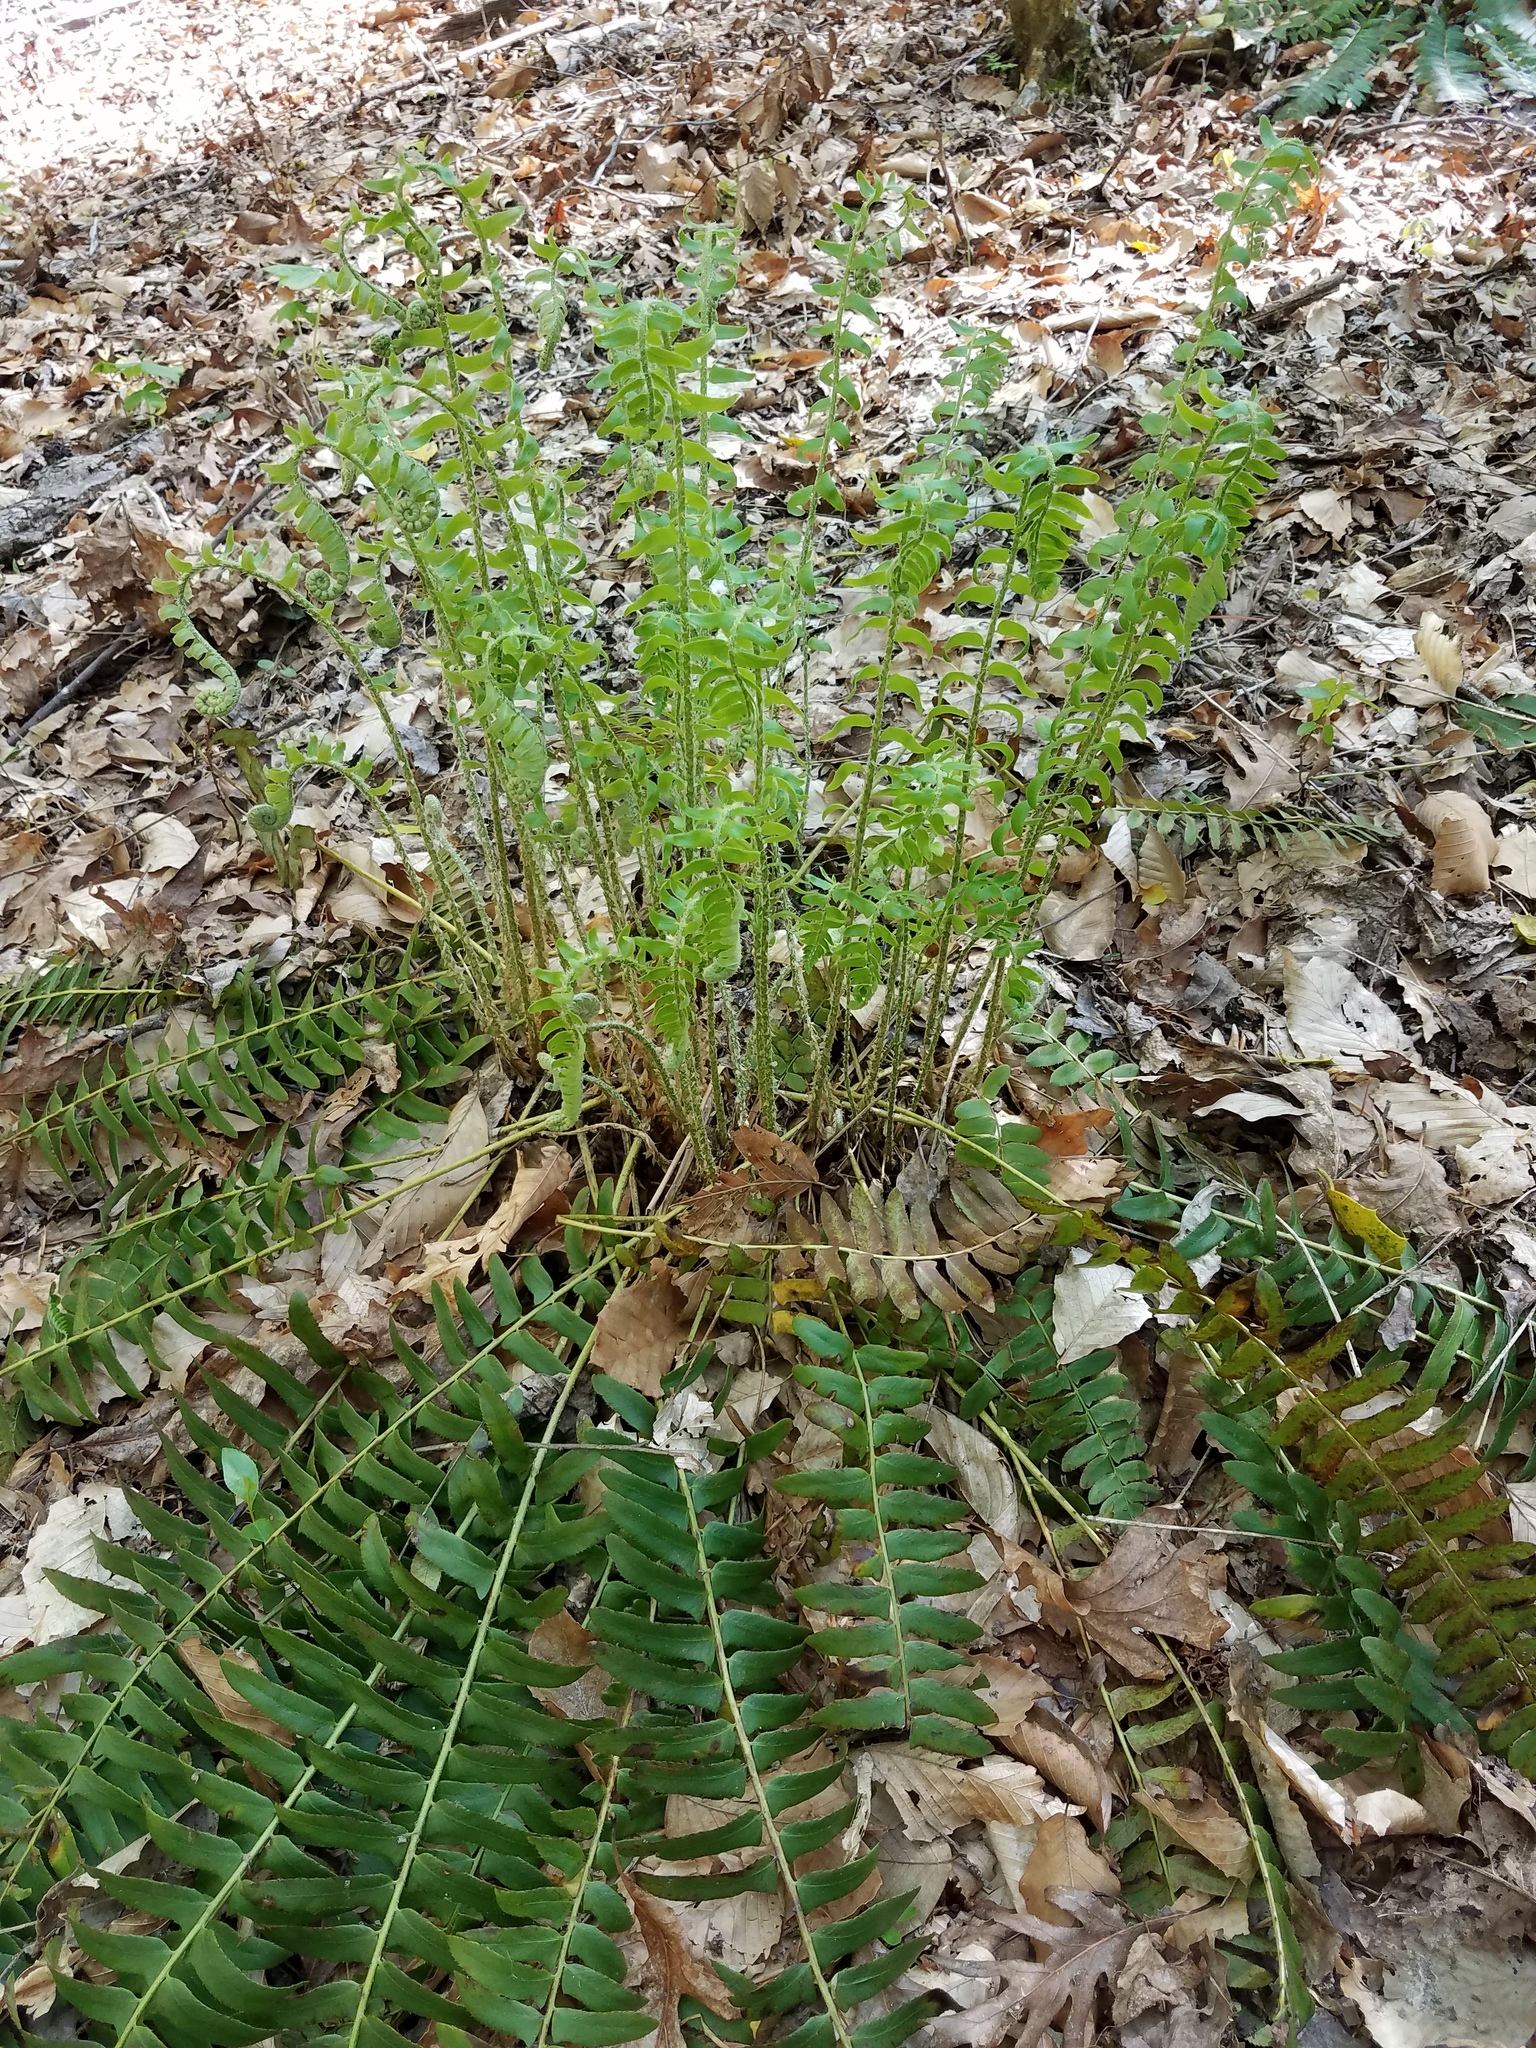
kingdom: Plantae
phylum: Tracheophyta
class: Polypodiopsida
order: Polypodiales
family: Dryopteridaceae
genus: Polystichum
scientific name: Polystichum acrostichoides
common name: Christmas fern
